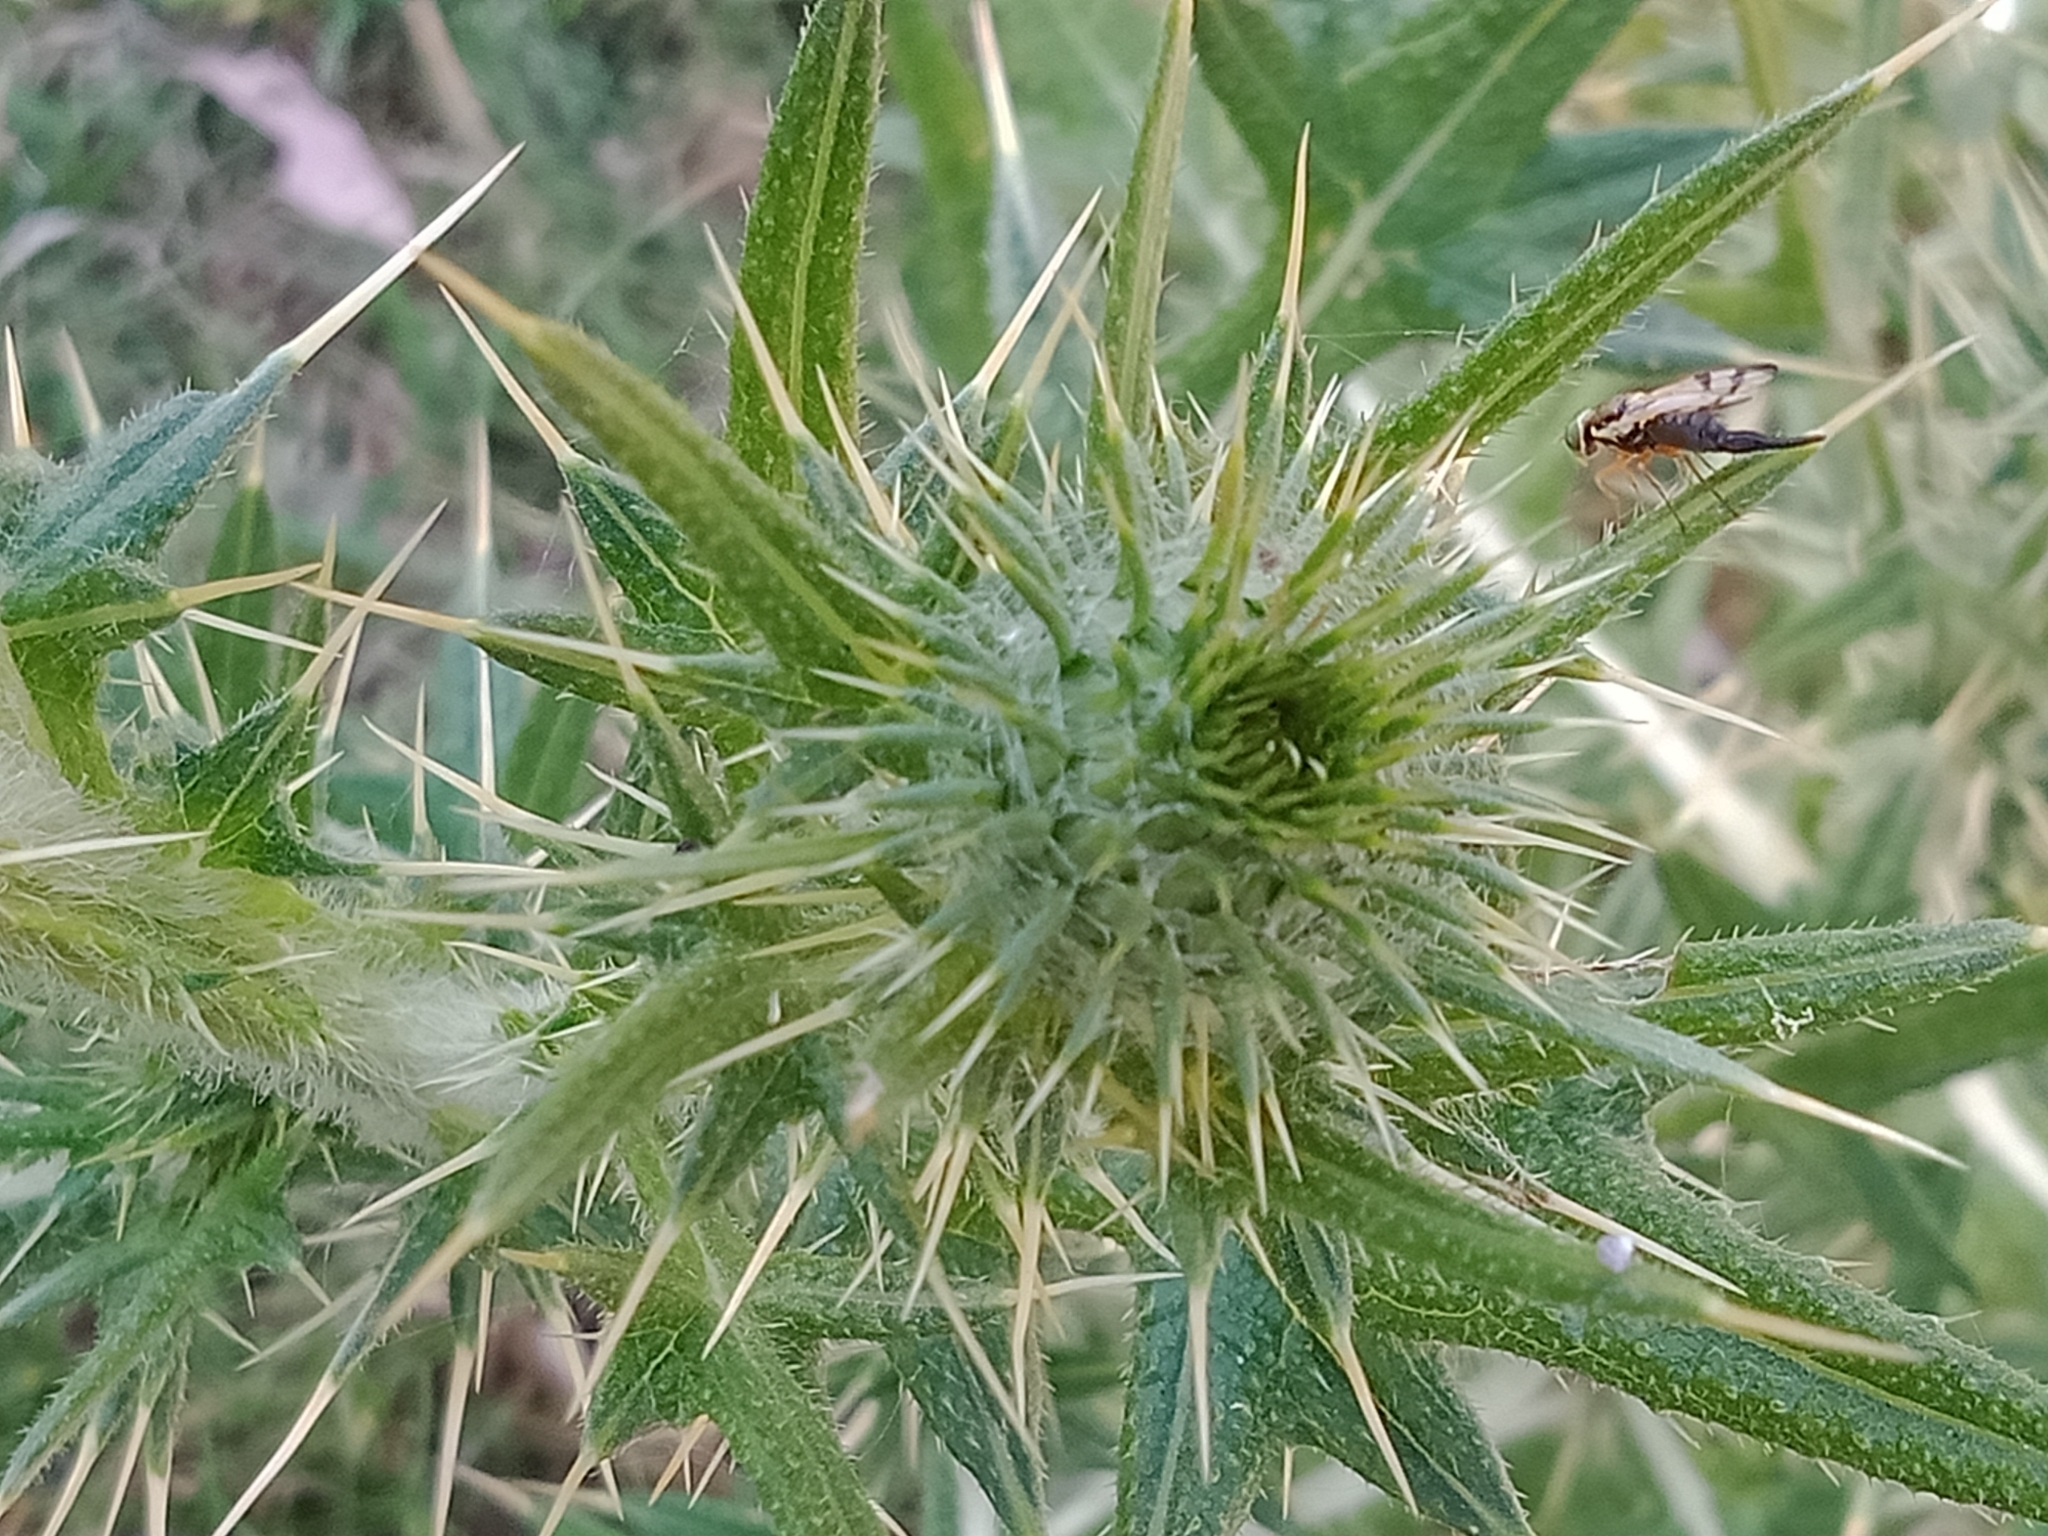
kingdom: Plantae
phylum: Tracheophyta
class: Magnoliopsida
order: Asterales
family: Asteraceae
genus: Cirsium
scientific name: Cirsium vulgare
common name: Bull thistle
